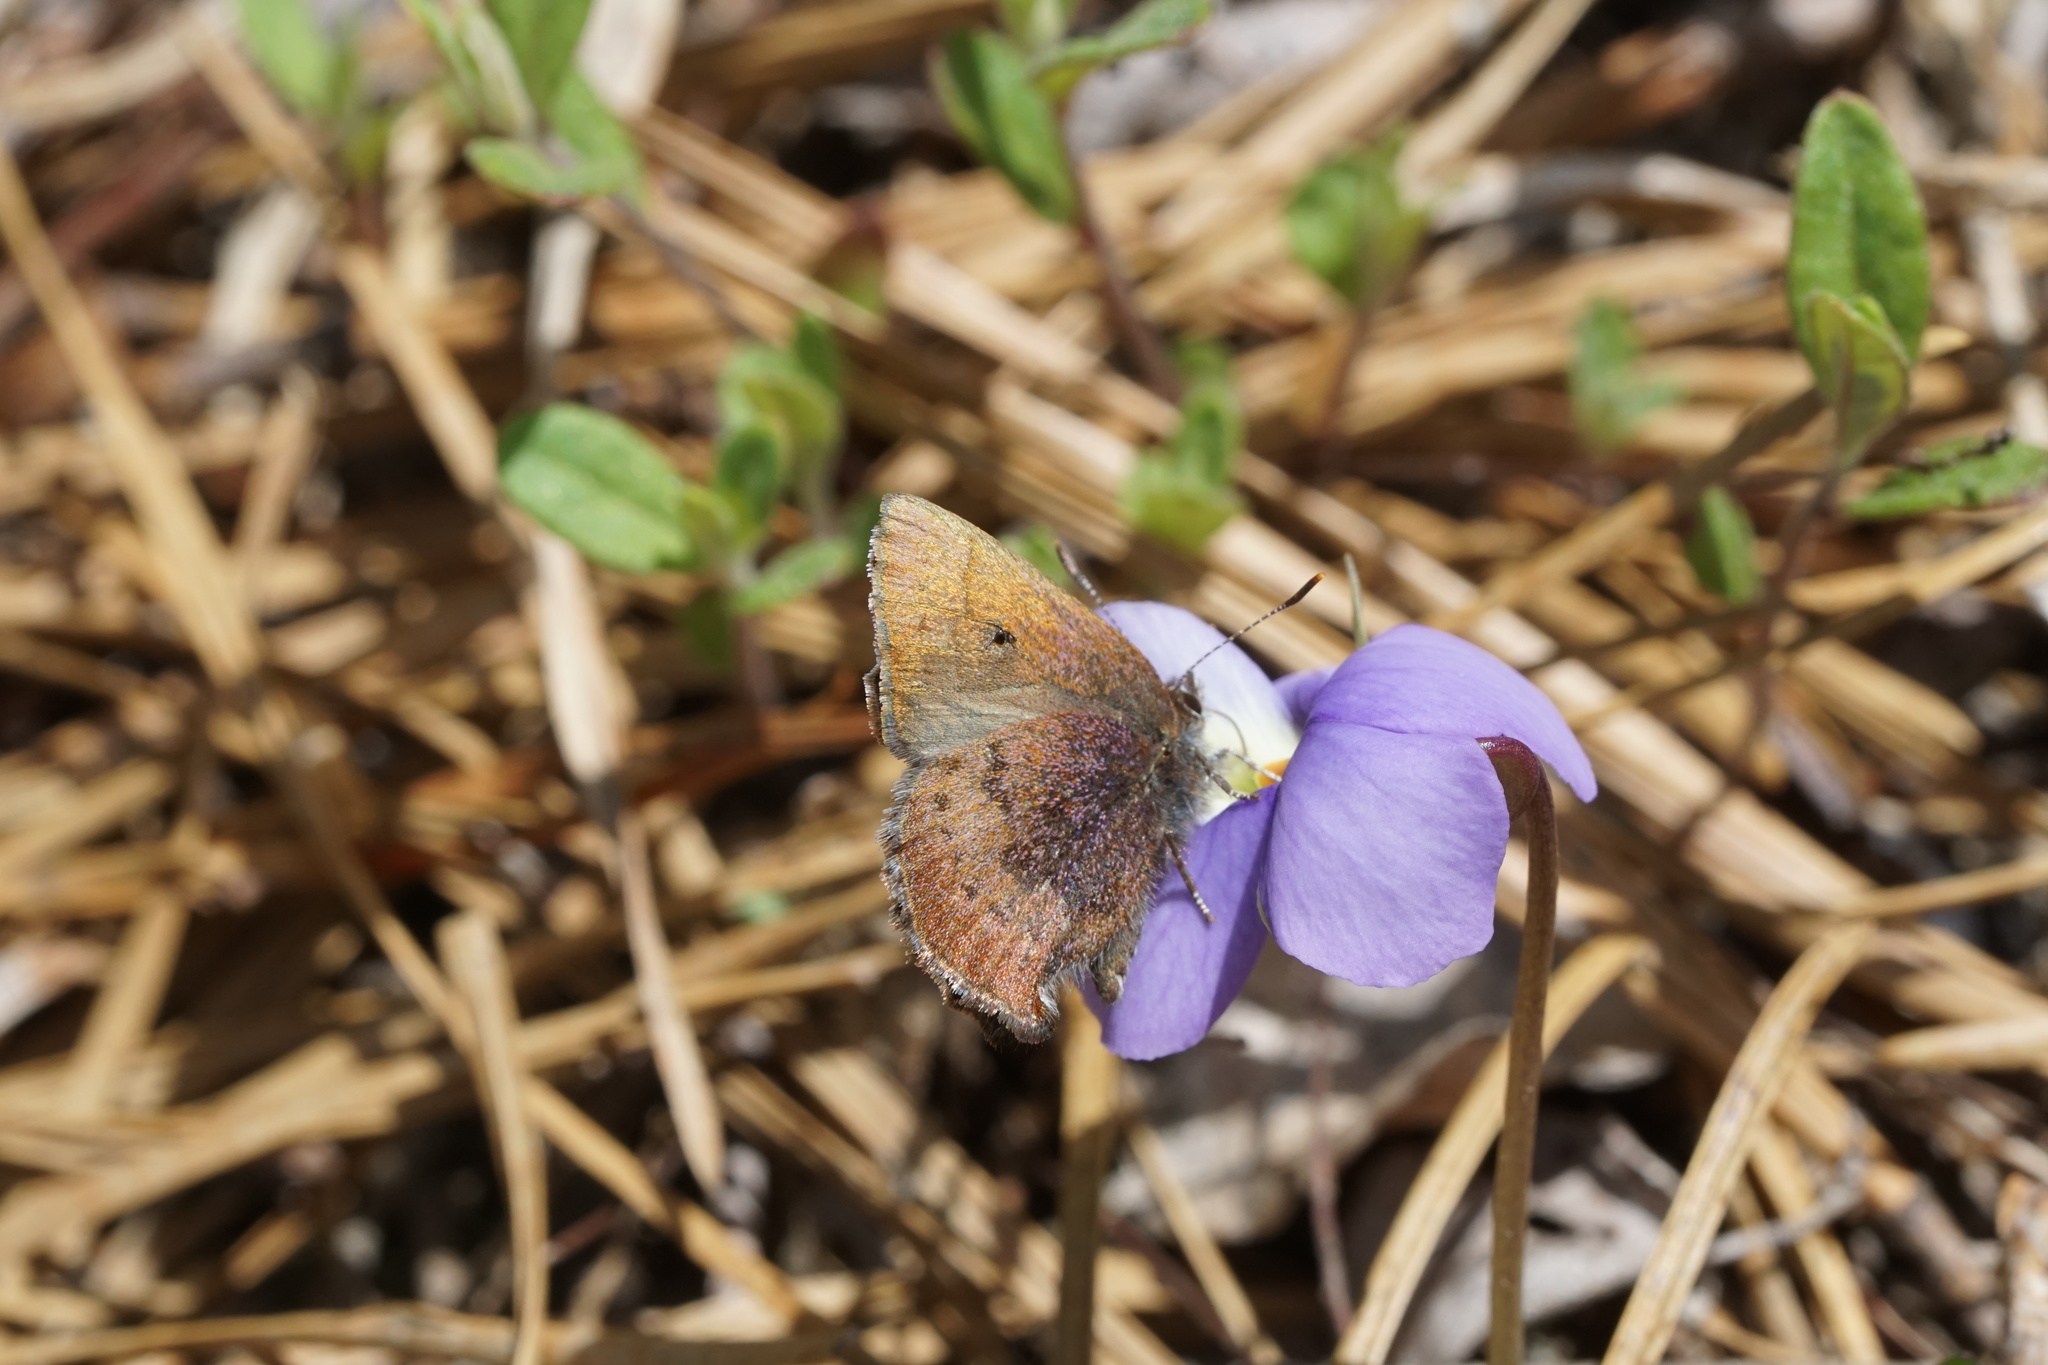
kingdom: Animalia
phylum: Arthropoda
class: Insecta
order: Lepidoptera
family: Lycaenidae
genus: Incisalia
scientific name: Incisalia irioides
